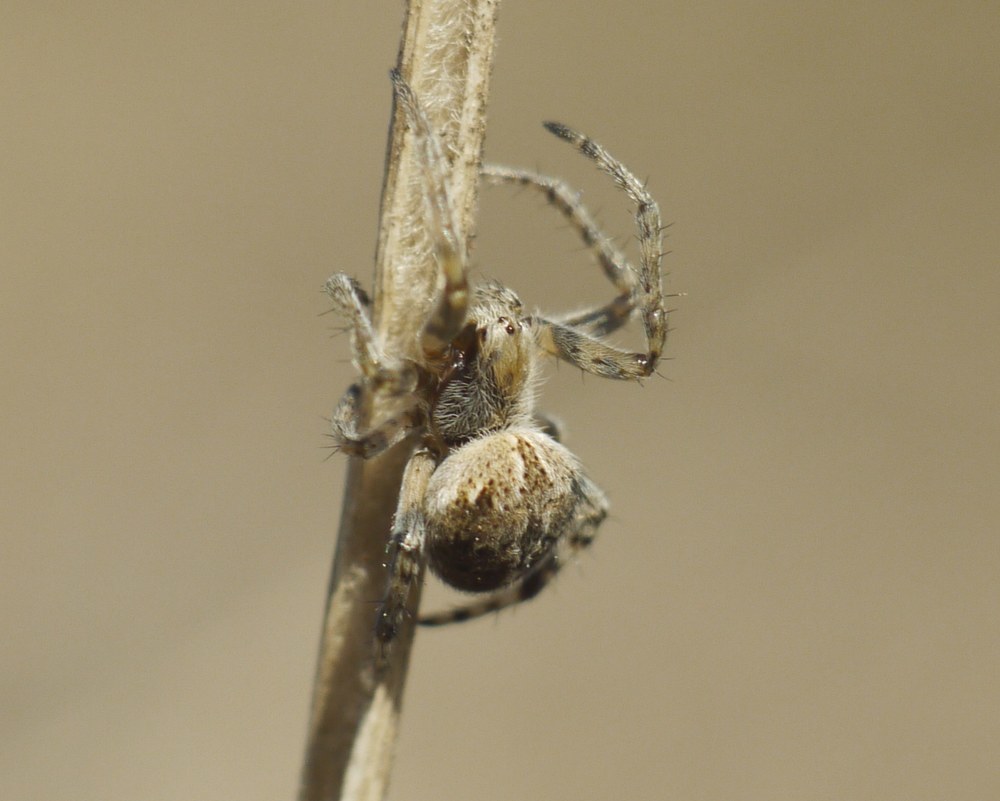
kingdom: Animalia
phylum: Arthropoda
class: Arachnida
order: Araneae
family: Araneidae
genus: Agalenatea
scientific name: Agalenatea redii
